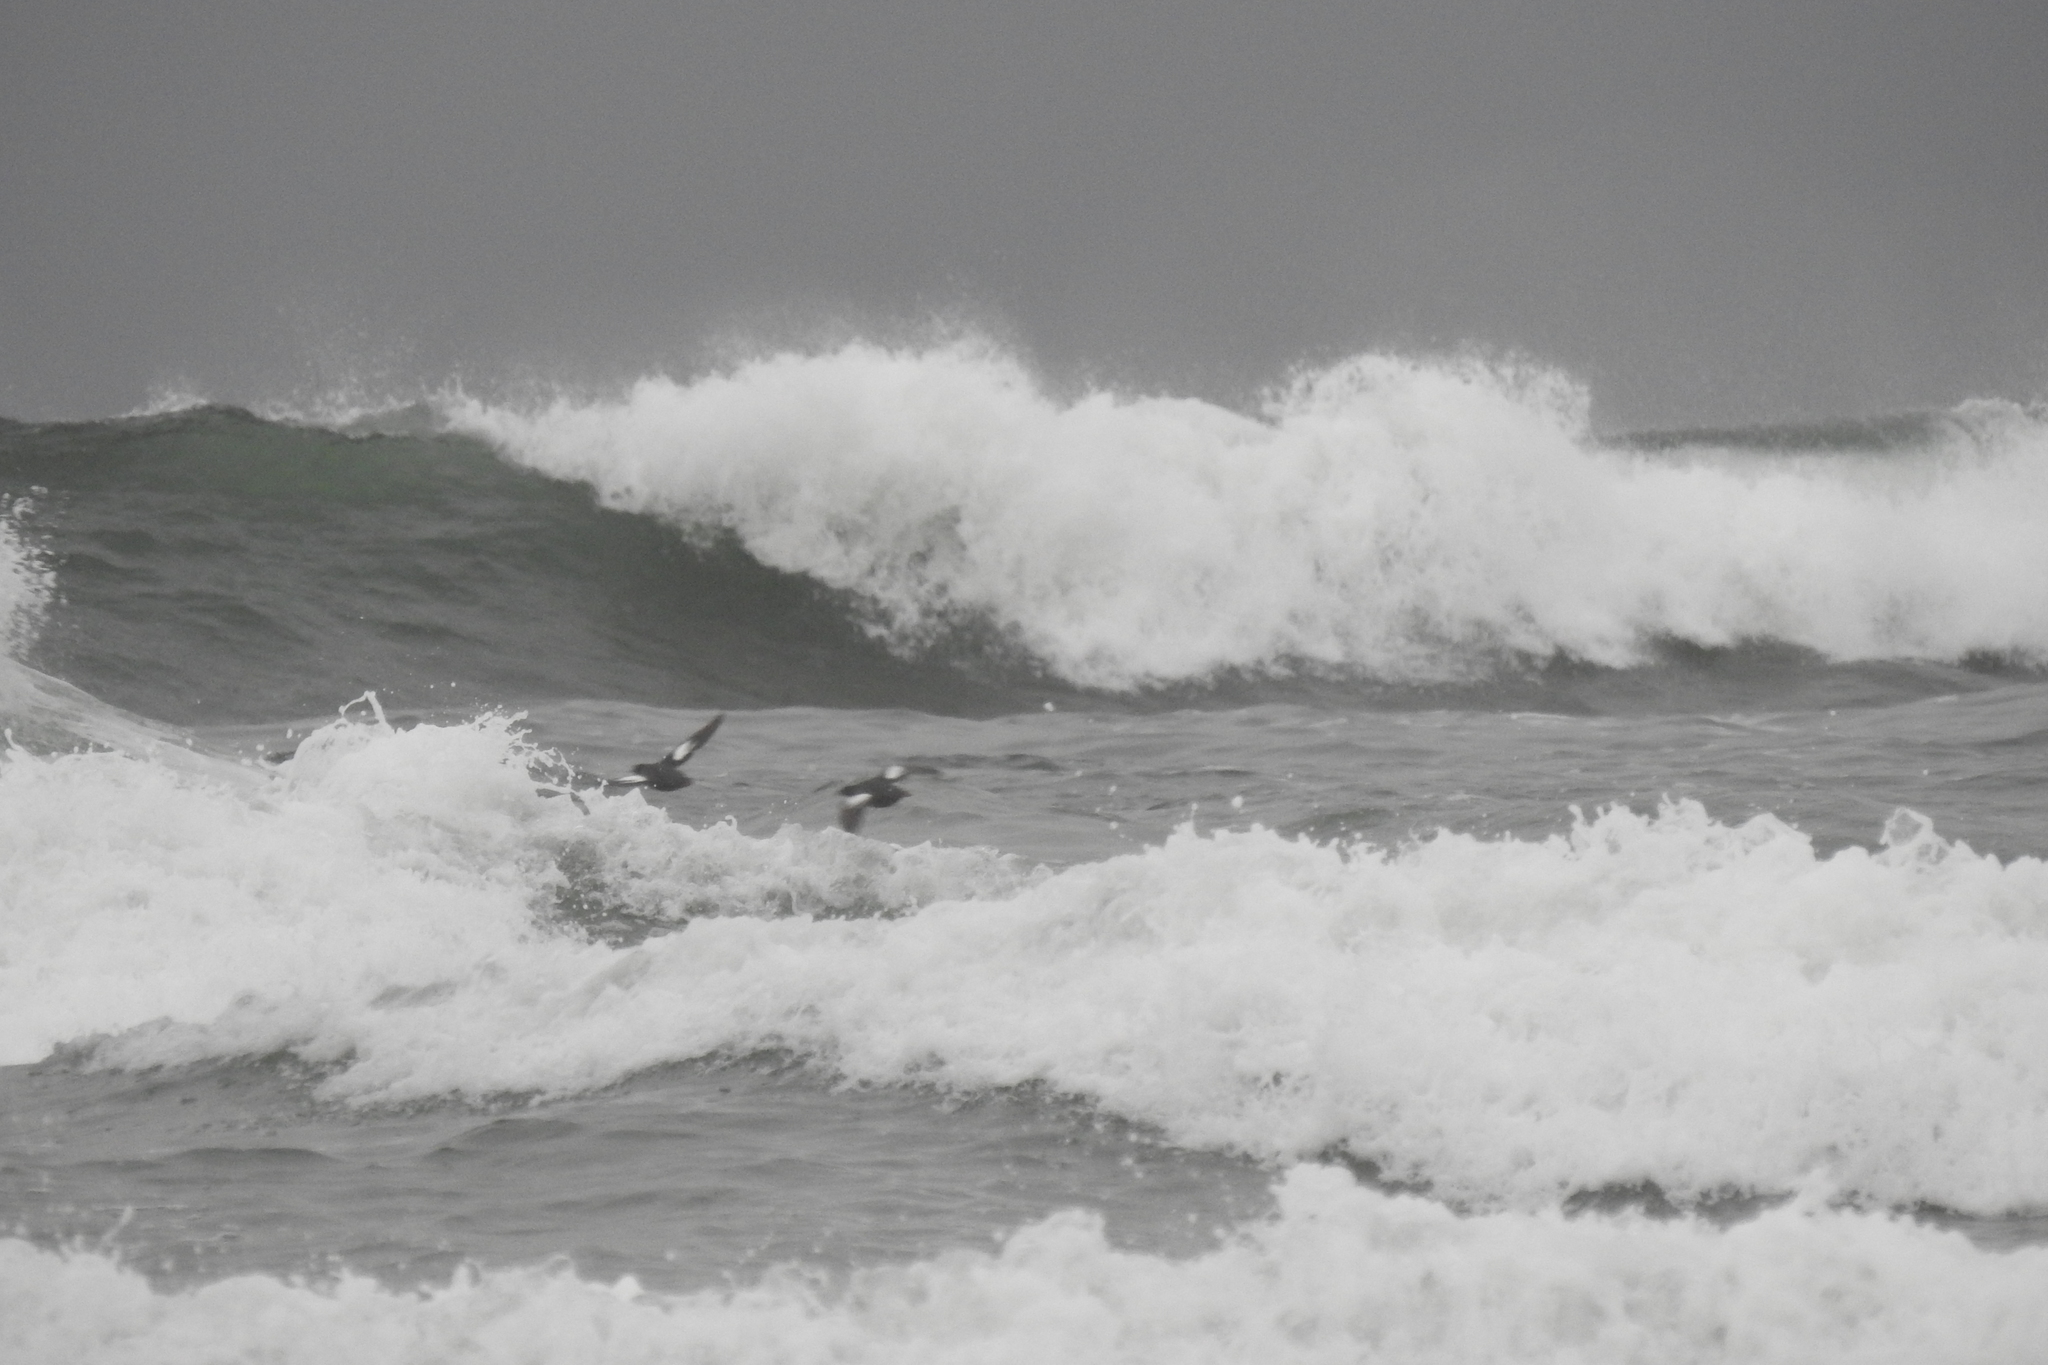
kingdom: Animalia
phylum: Chordata
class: Aves
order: Charadriiformes
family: Alcidae
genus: Cepphus
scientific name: Cepphus columba
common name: Pigeon guillemot
